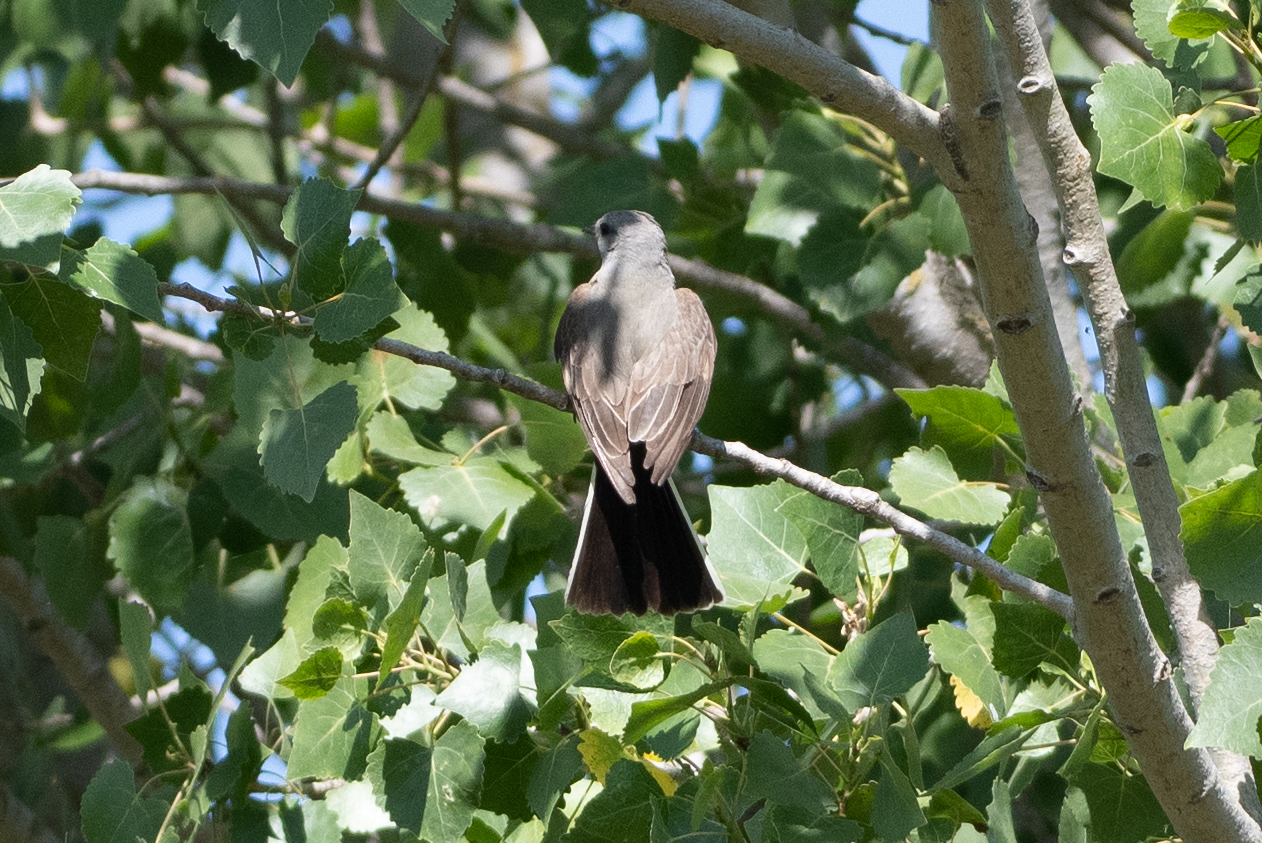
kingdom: Animalia
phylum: Chordata
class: Aves
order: Passeriformes
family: Tyrannidae
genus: Tyrannus
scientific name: Tyrannus verticalis
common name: Western kingbird
